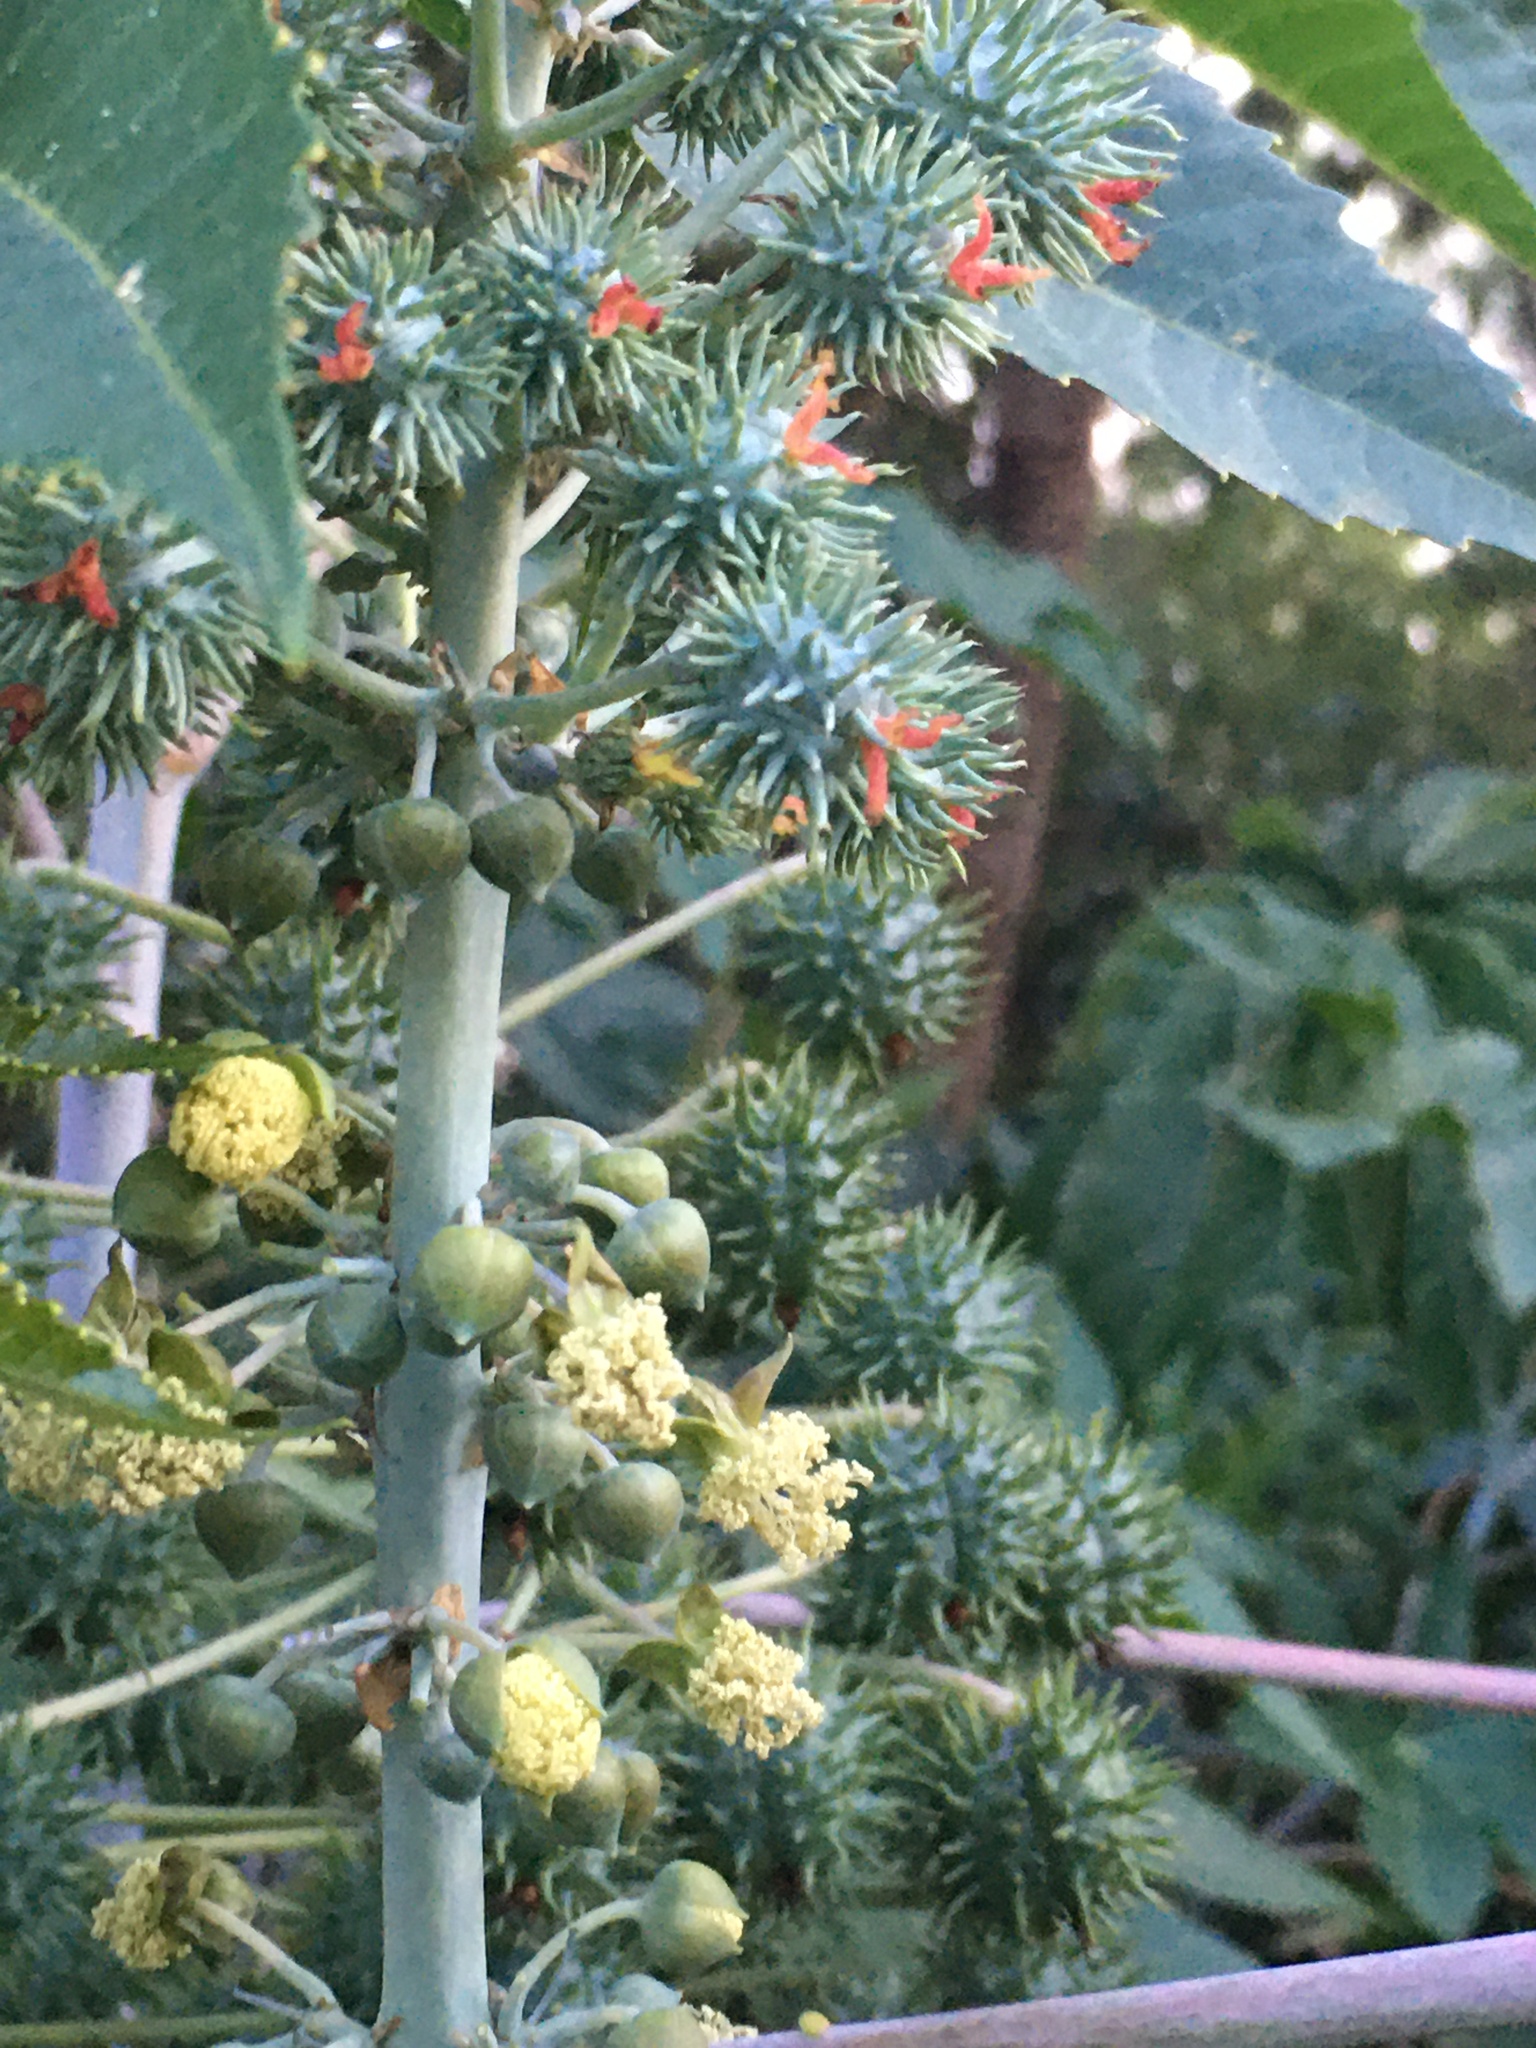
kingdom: Plantae
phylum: Tracheophyta
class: Magnoliopsida
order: Malpighiales
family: Euphorbiaceae
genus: Ricinus
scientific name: Ricinus communis
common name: Castor-oil-plant
